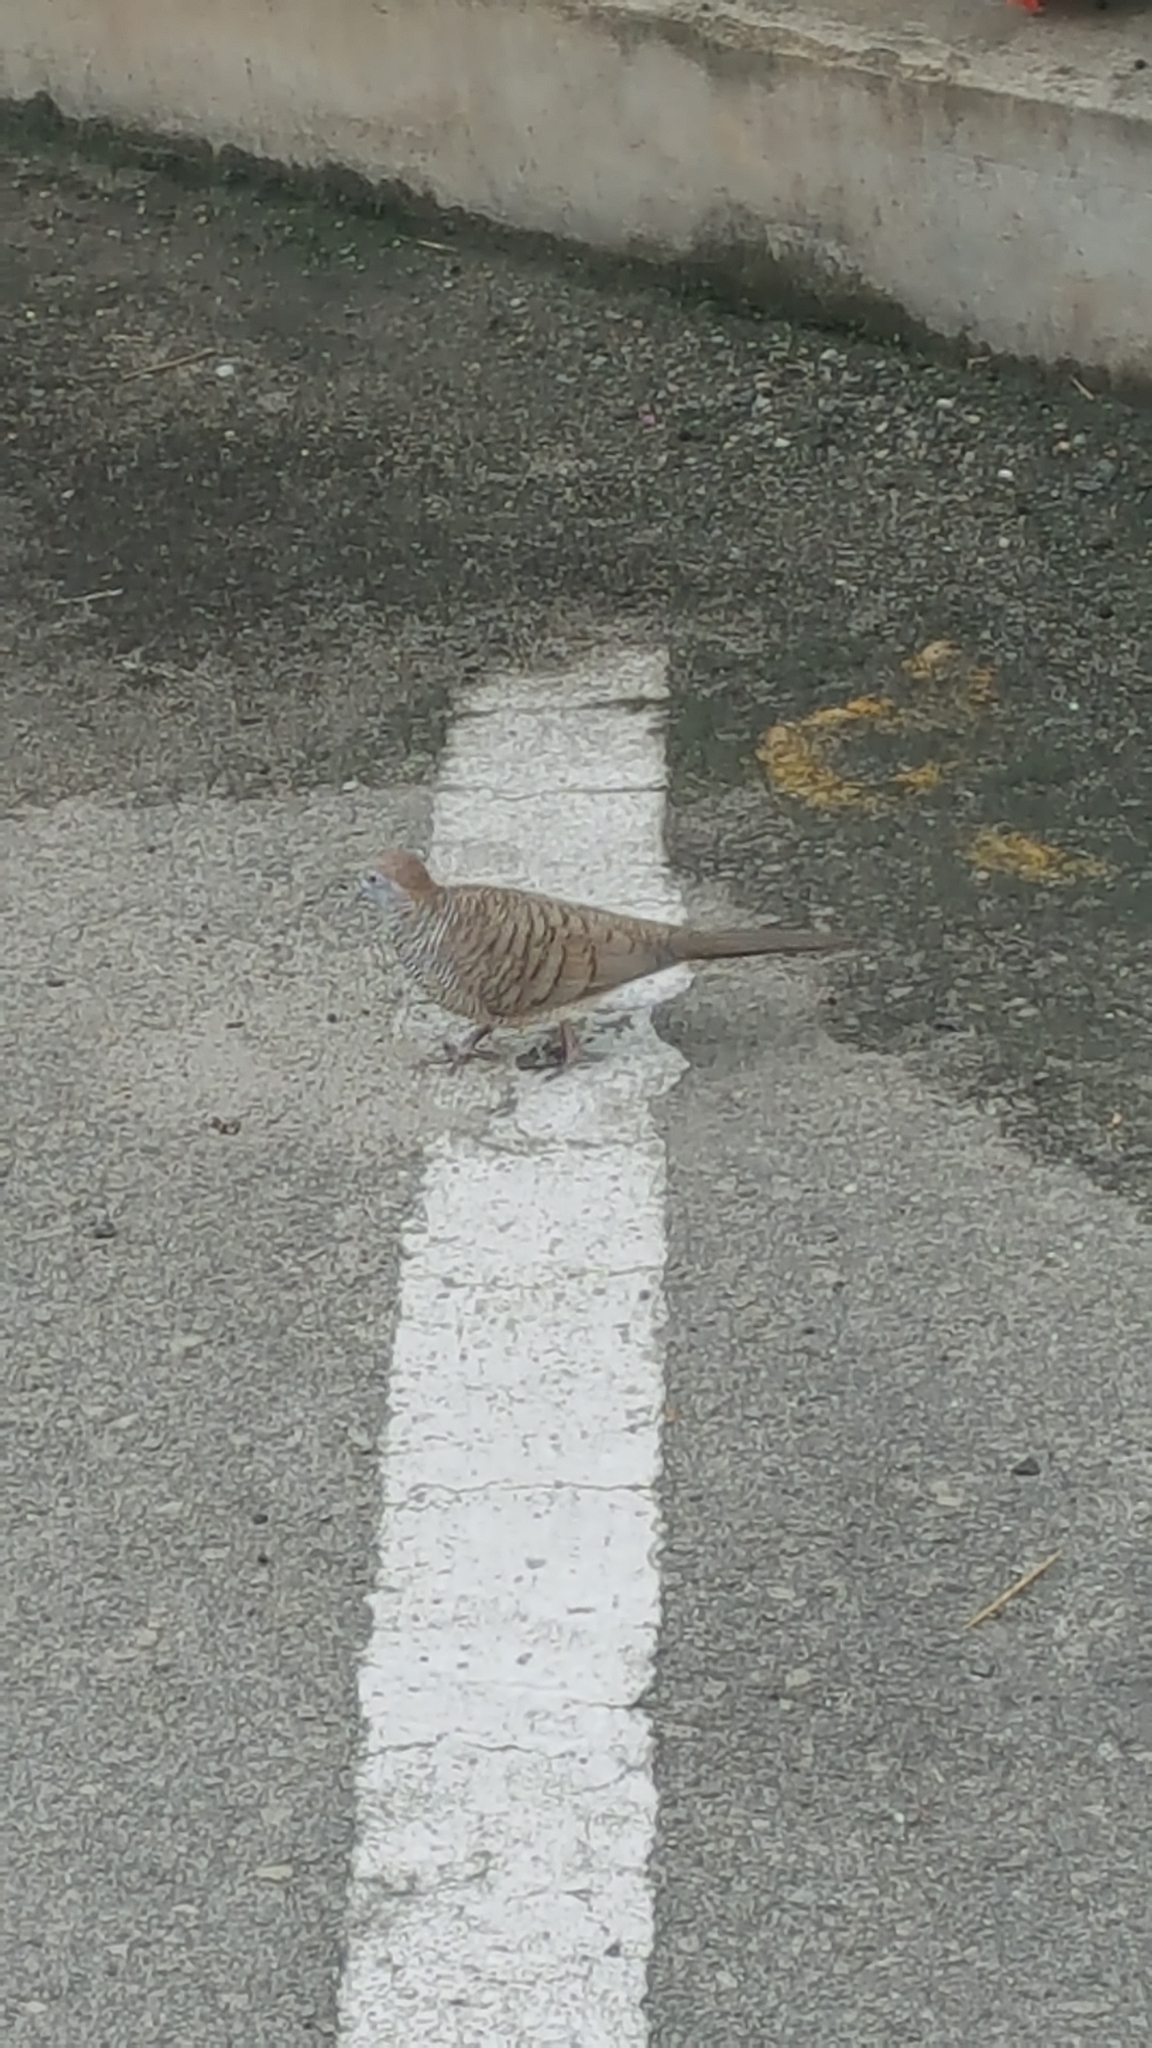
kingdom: Animalia
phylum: Chordata
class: Aves
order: Columbiformes
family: Columbidae
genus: Geopelia
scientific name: Geopelia striata
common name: Zebra dove
